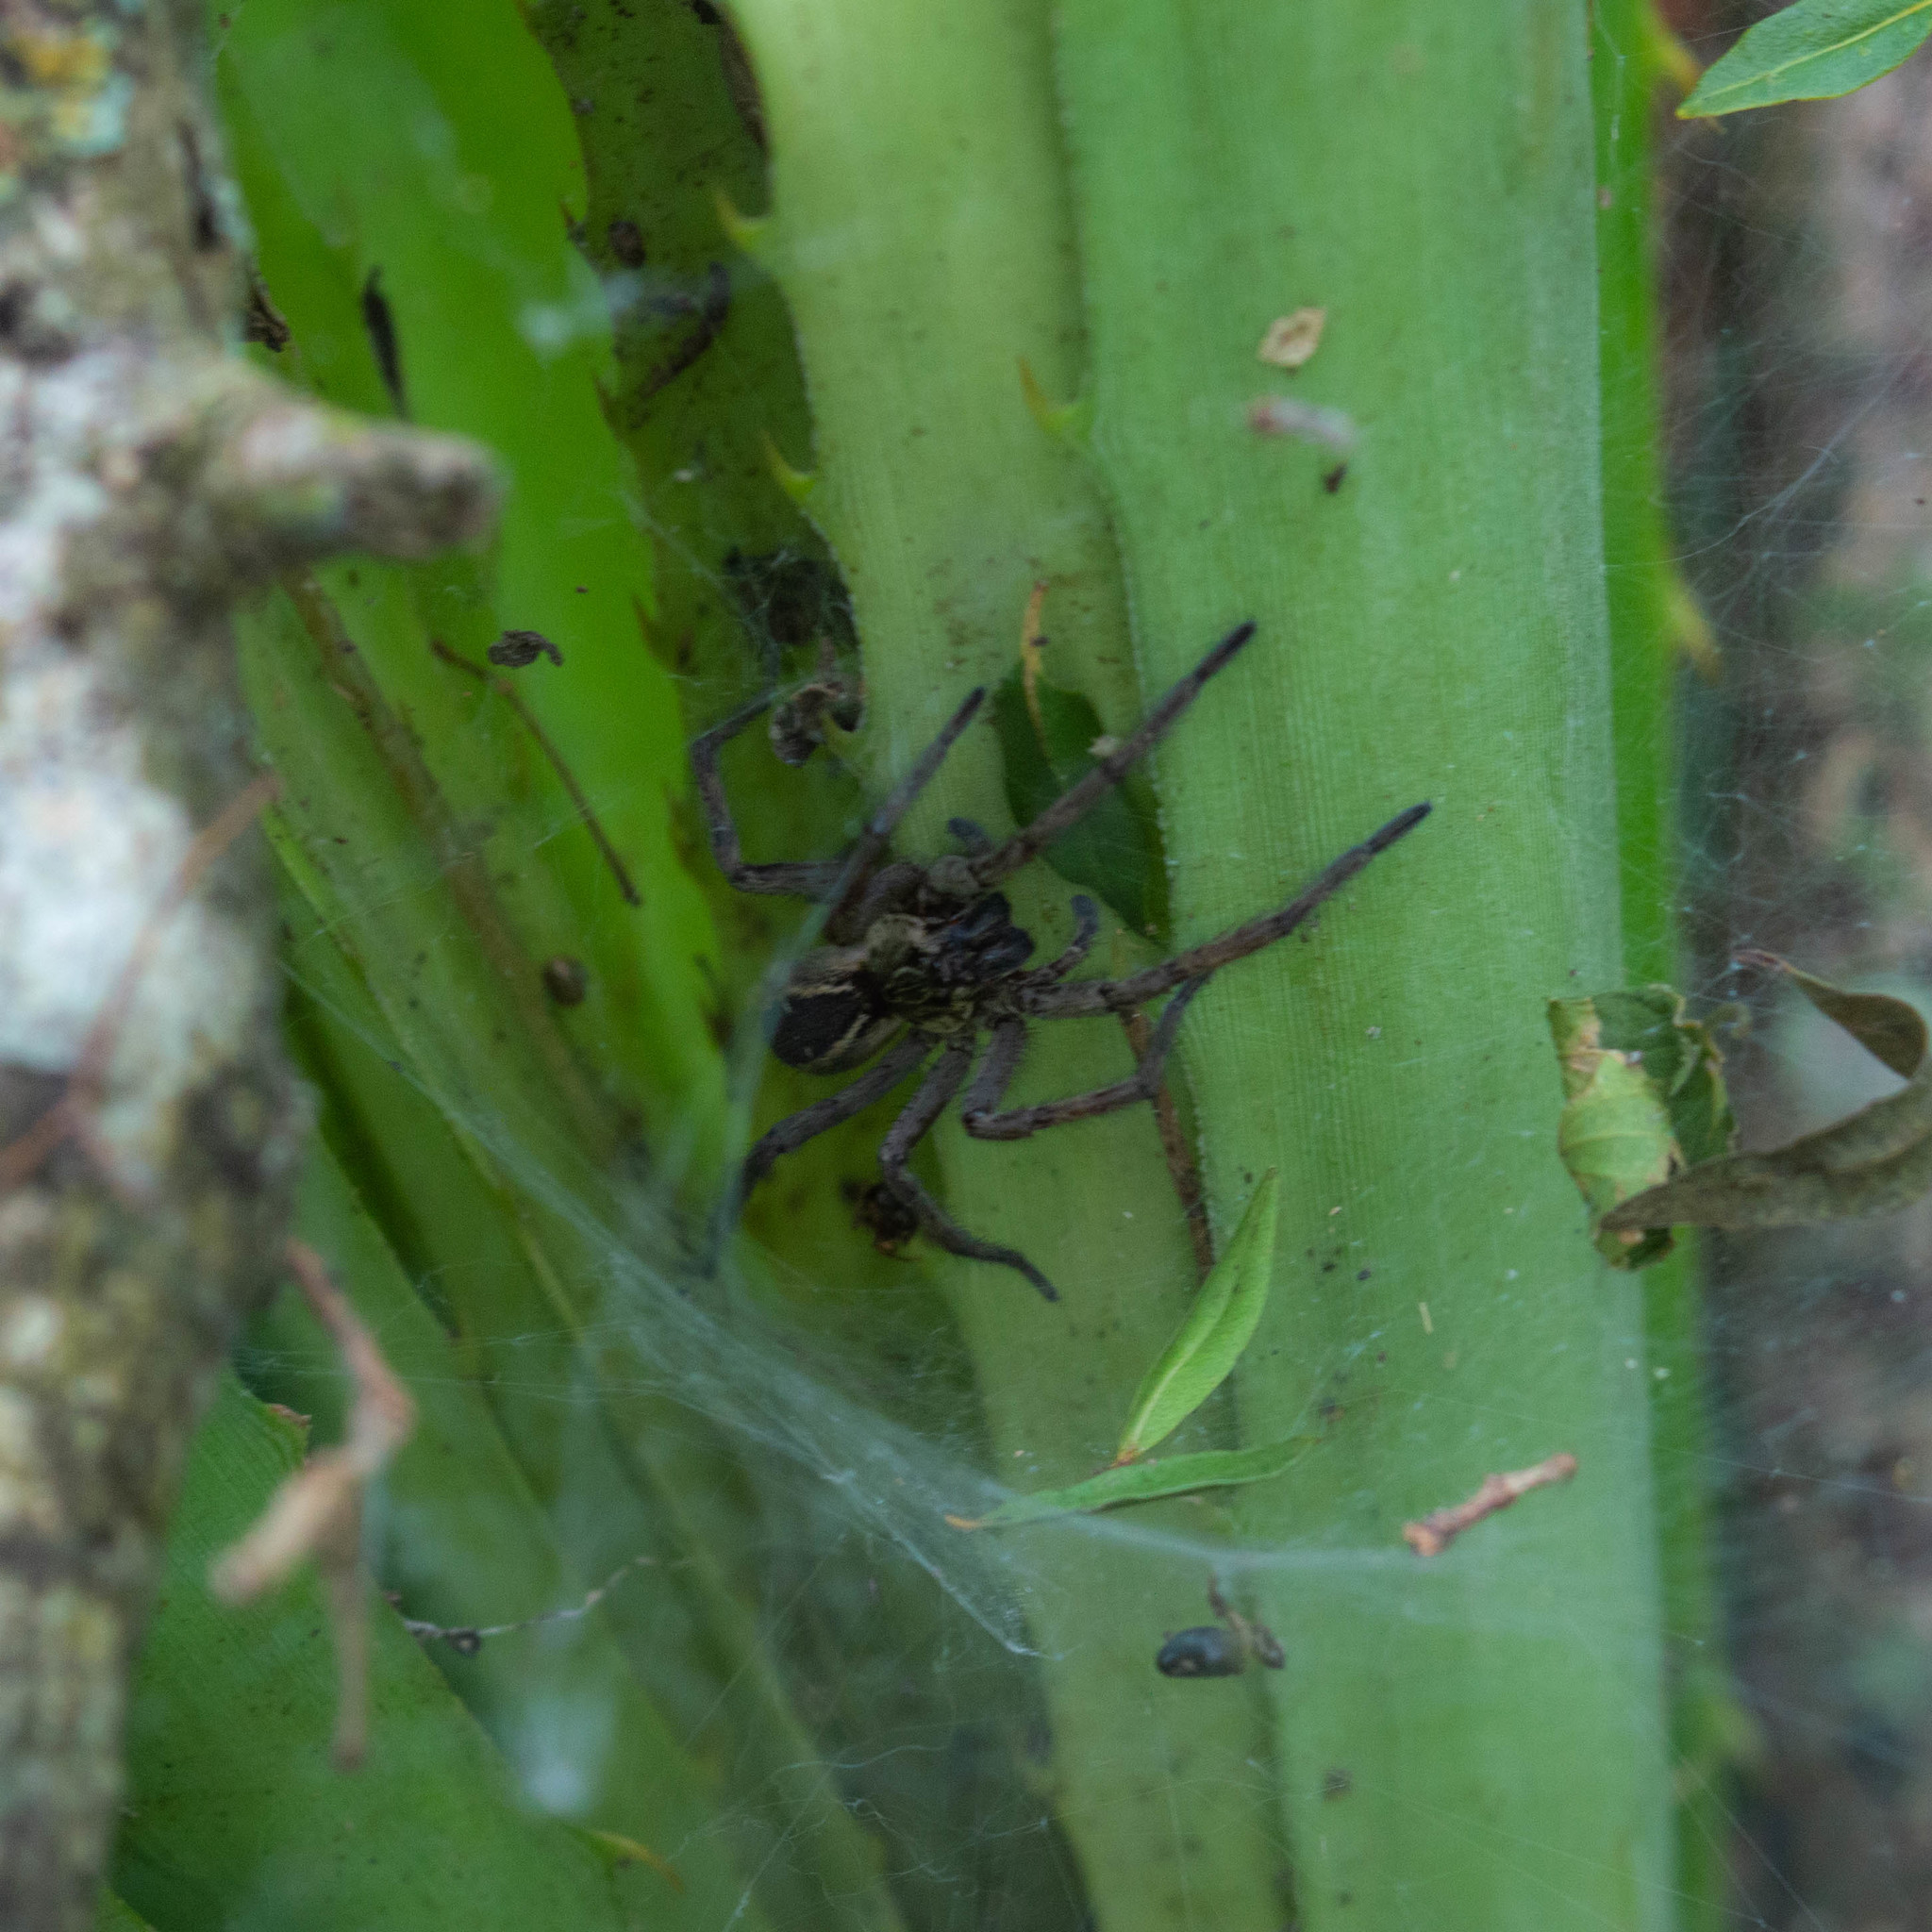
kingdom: Animalia
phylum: Arthropoda
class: Arachnida
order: Araneae
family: Lycosidae
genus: Aglaoctenus
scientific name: Aglaoctenus lagotis
